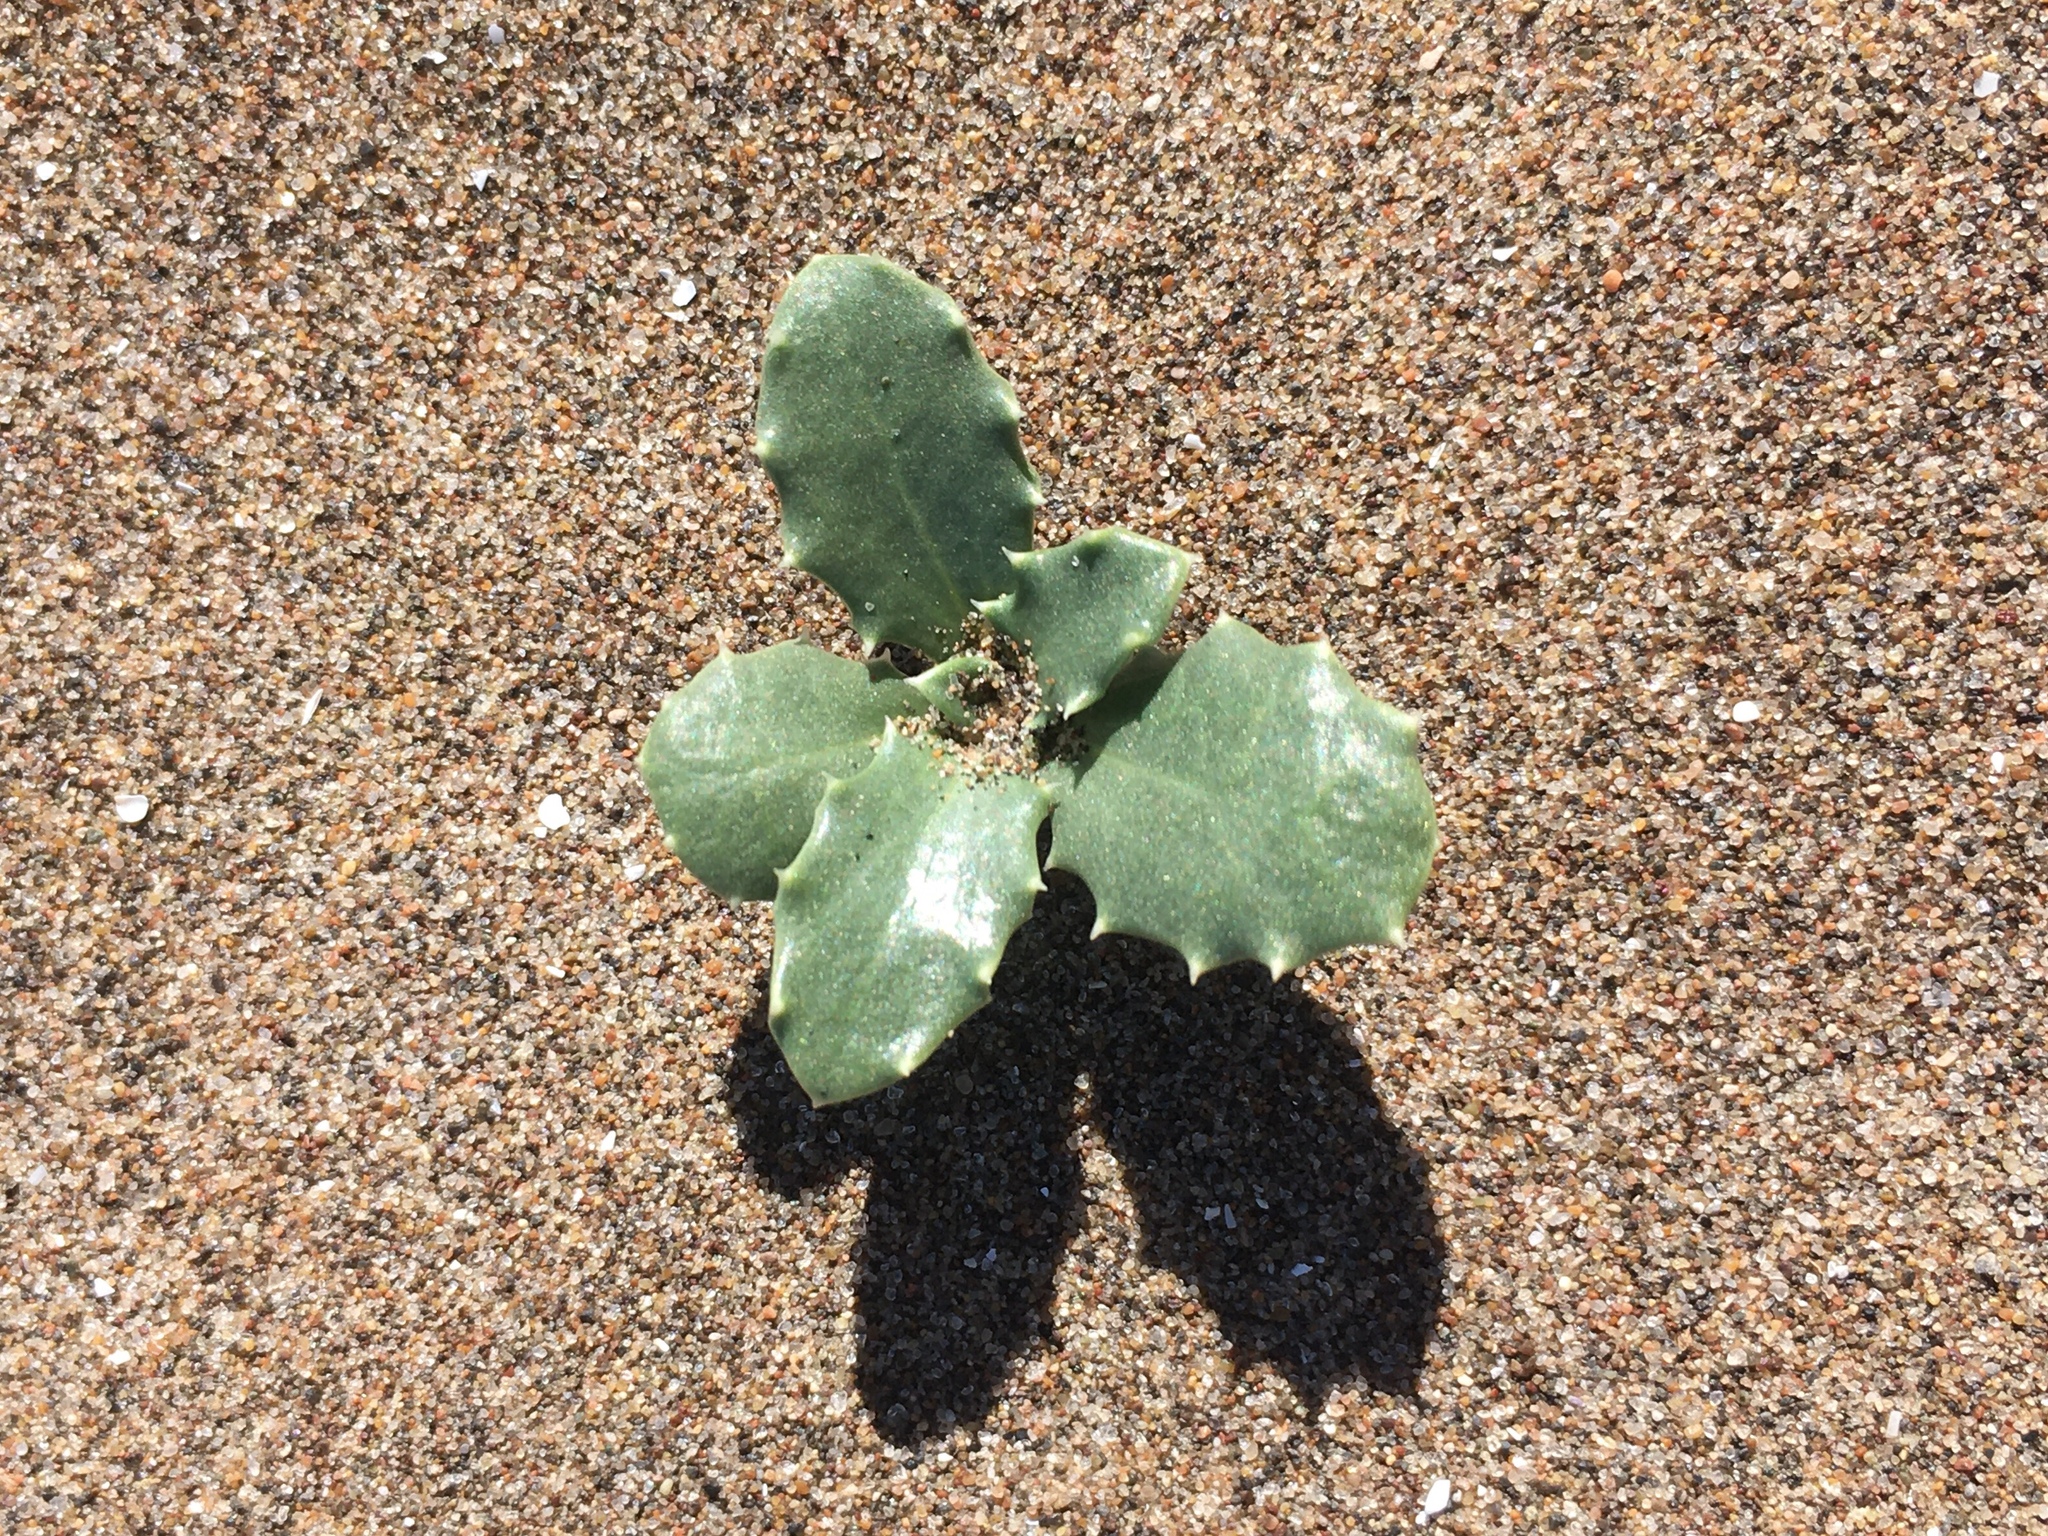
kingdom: Plantae
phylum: Tracheophyta
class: Magnoliopsida
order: Asterales
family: Calyceraceae
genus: Calycera
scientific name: Calycera crassifolia
